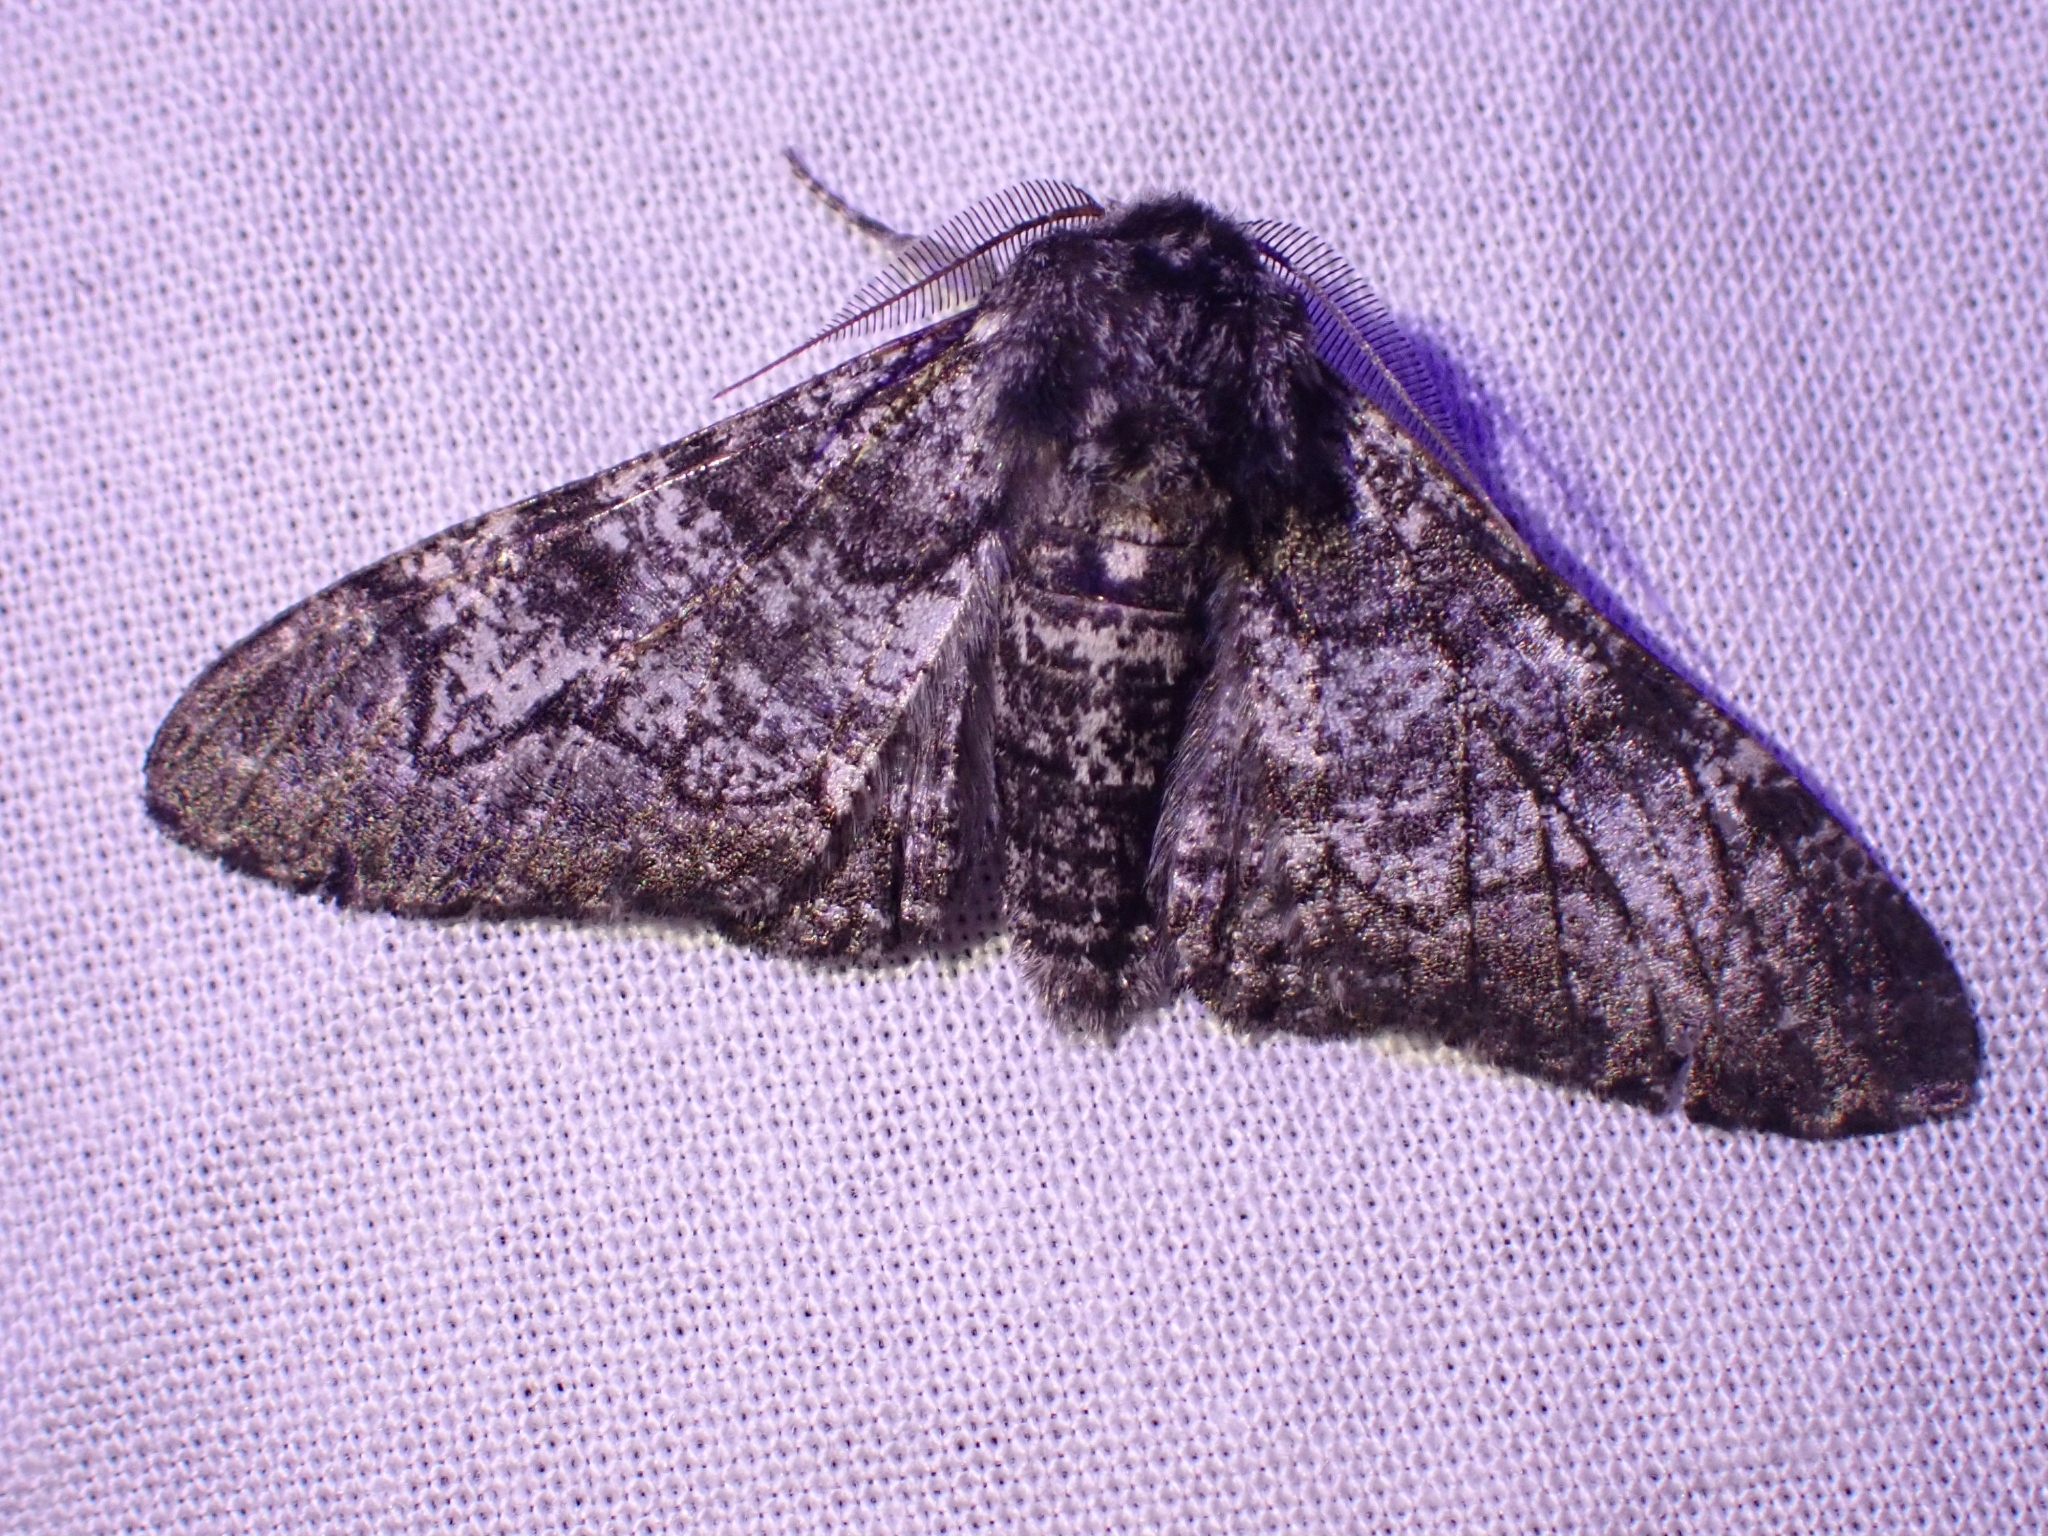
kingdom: Animalia
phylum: Arthropoda
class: Insecta
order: Lepidoptera
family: Geometridae
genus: Biston
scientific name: Biston betularia
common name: Peppered moth
